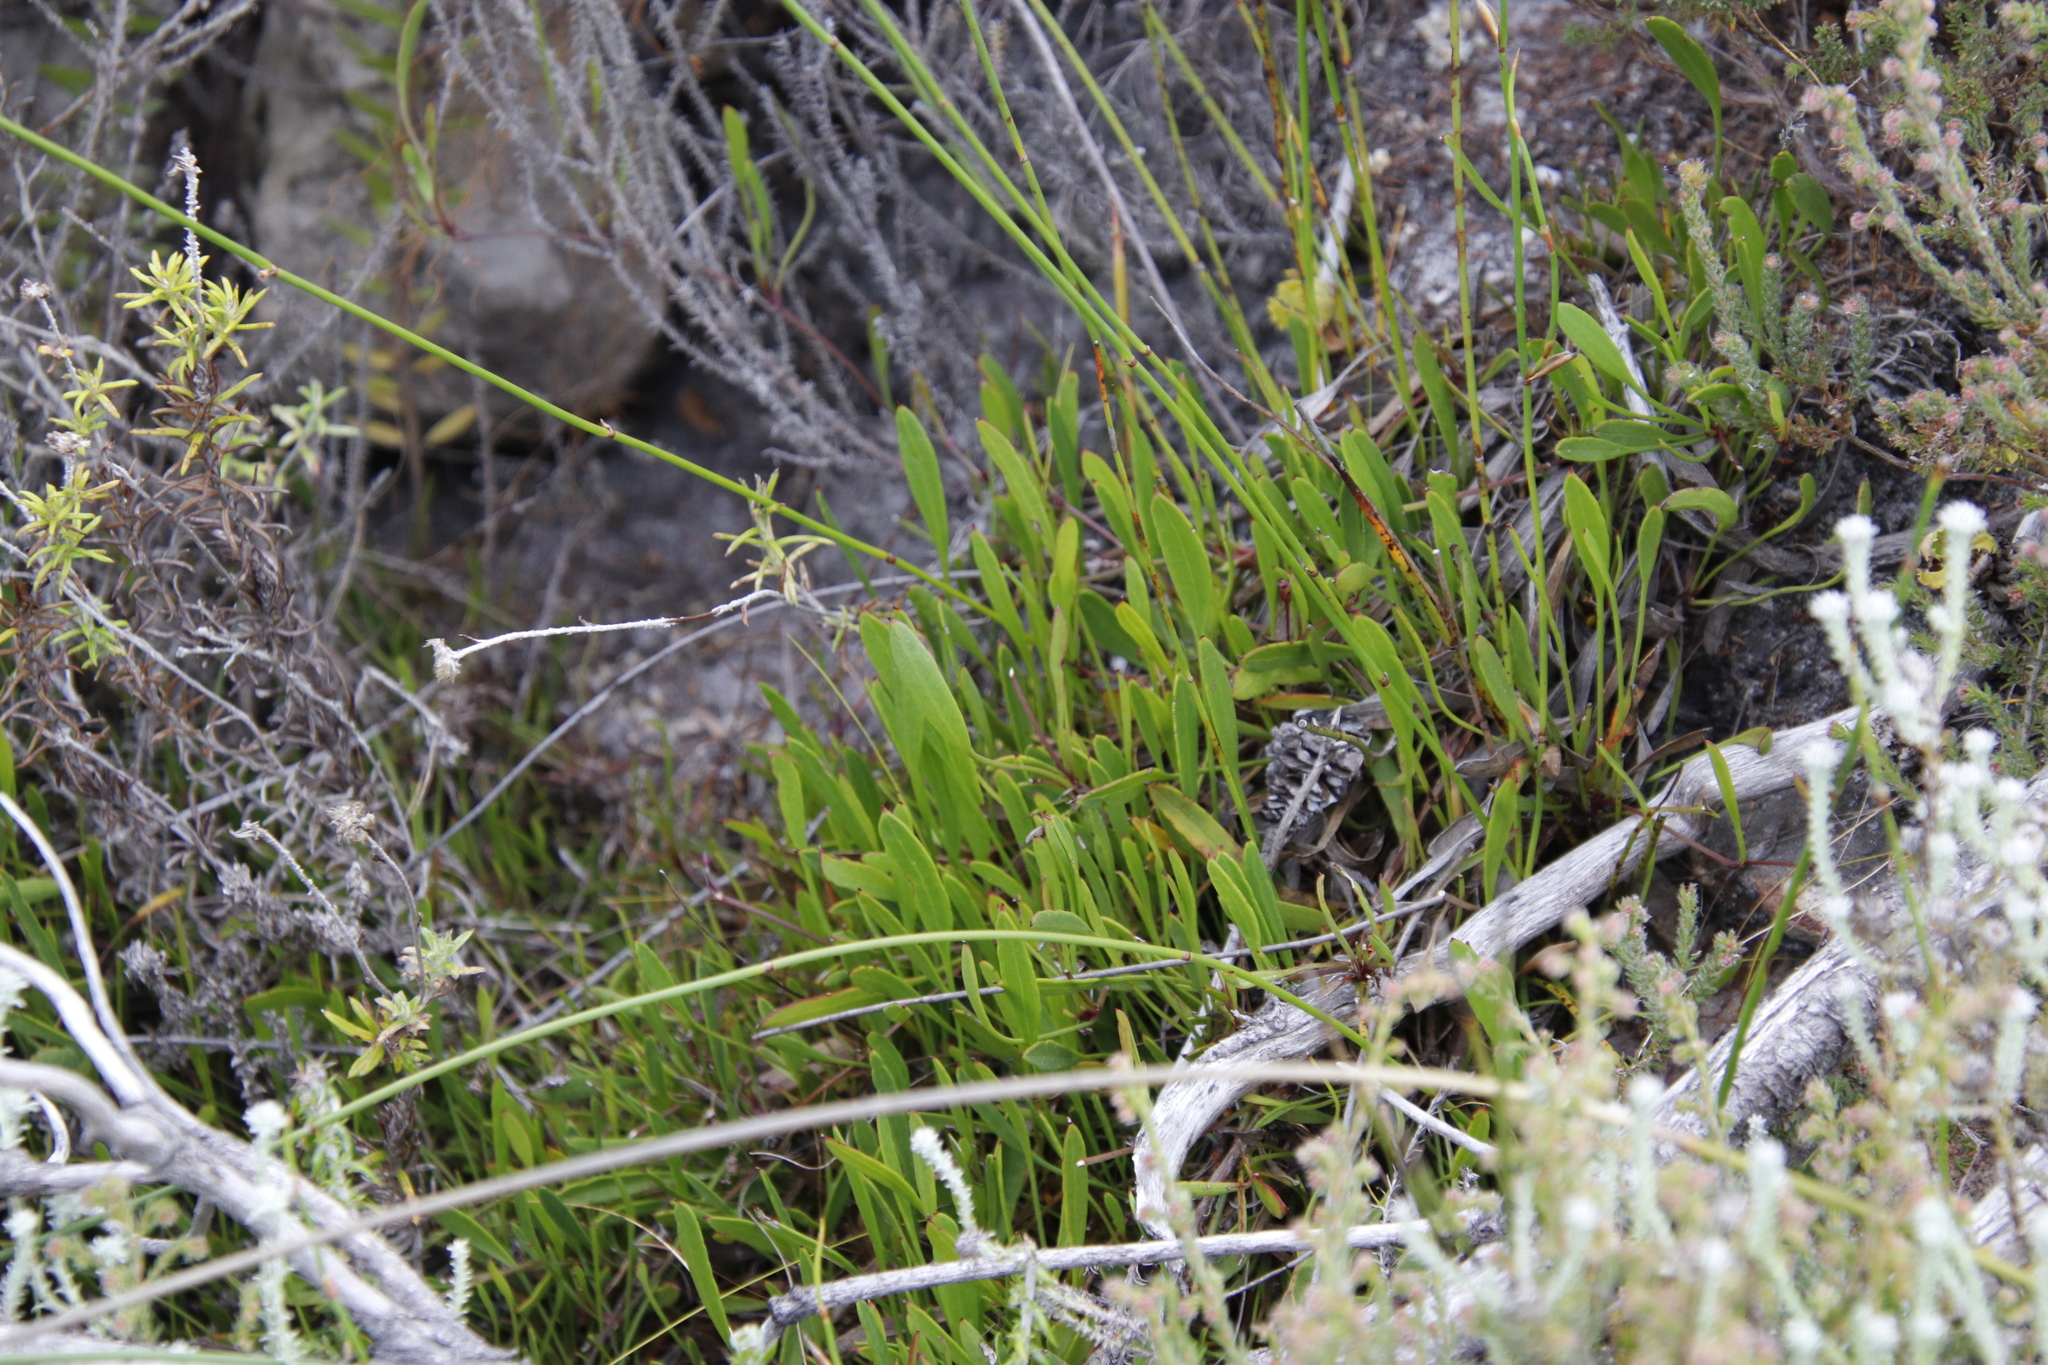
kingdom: Plantae
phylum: Tracheophyta
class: Magnoliopsida
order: Apiales
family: Apiaceae
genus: Centella
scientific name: Centella glabrata
